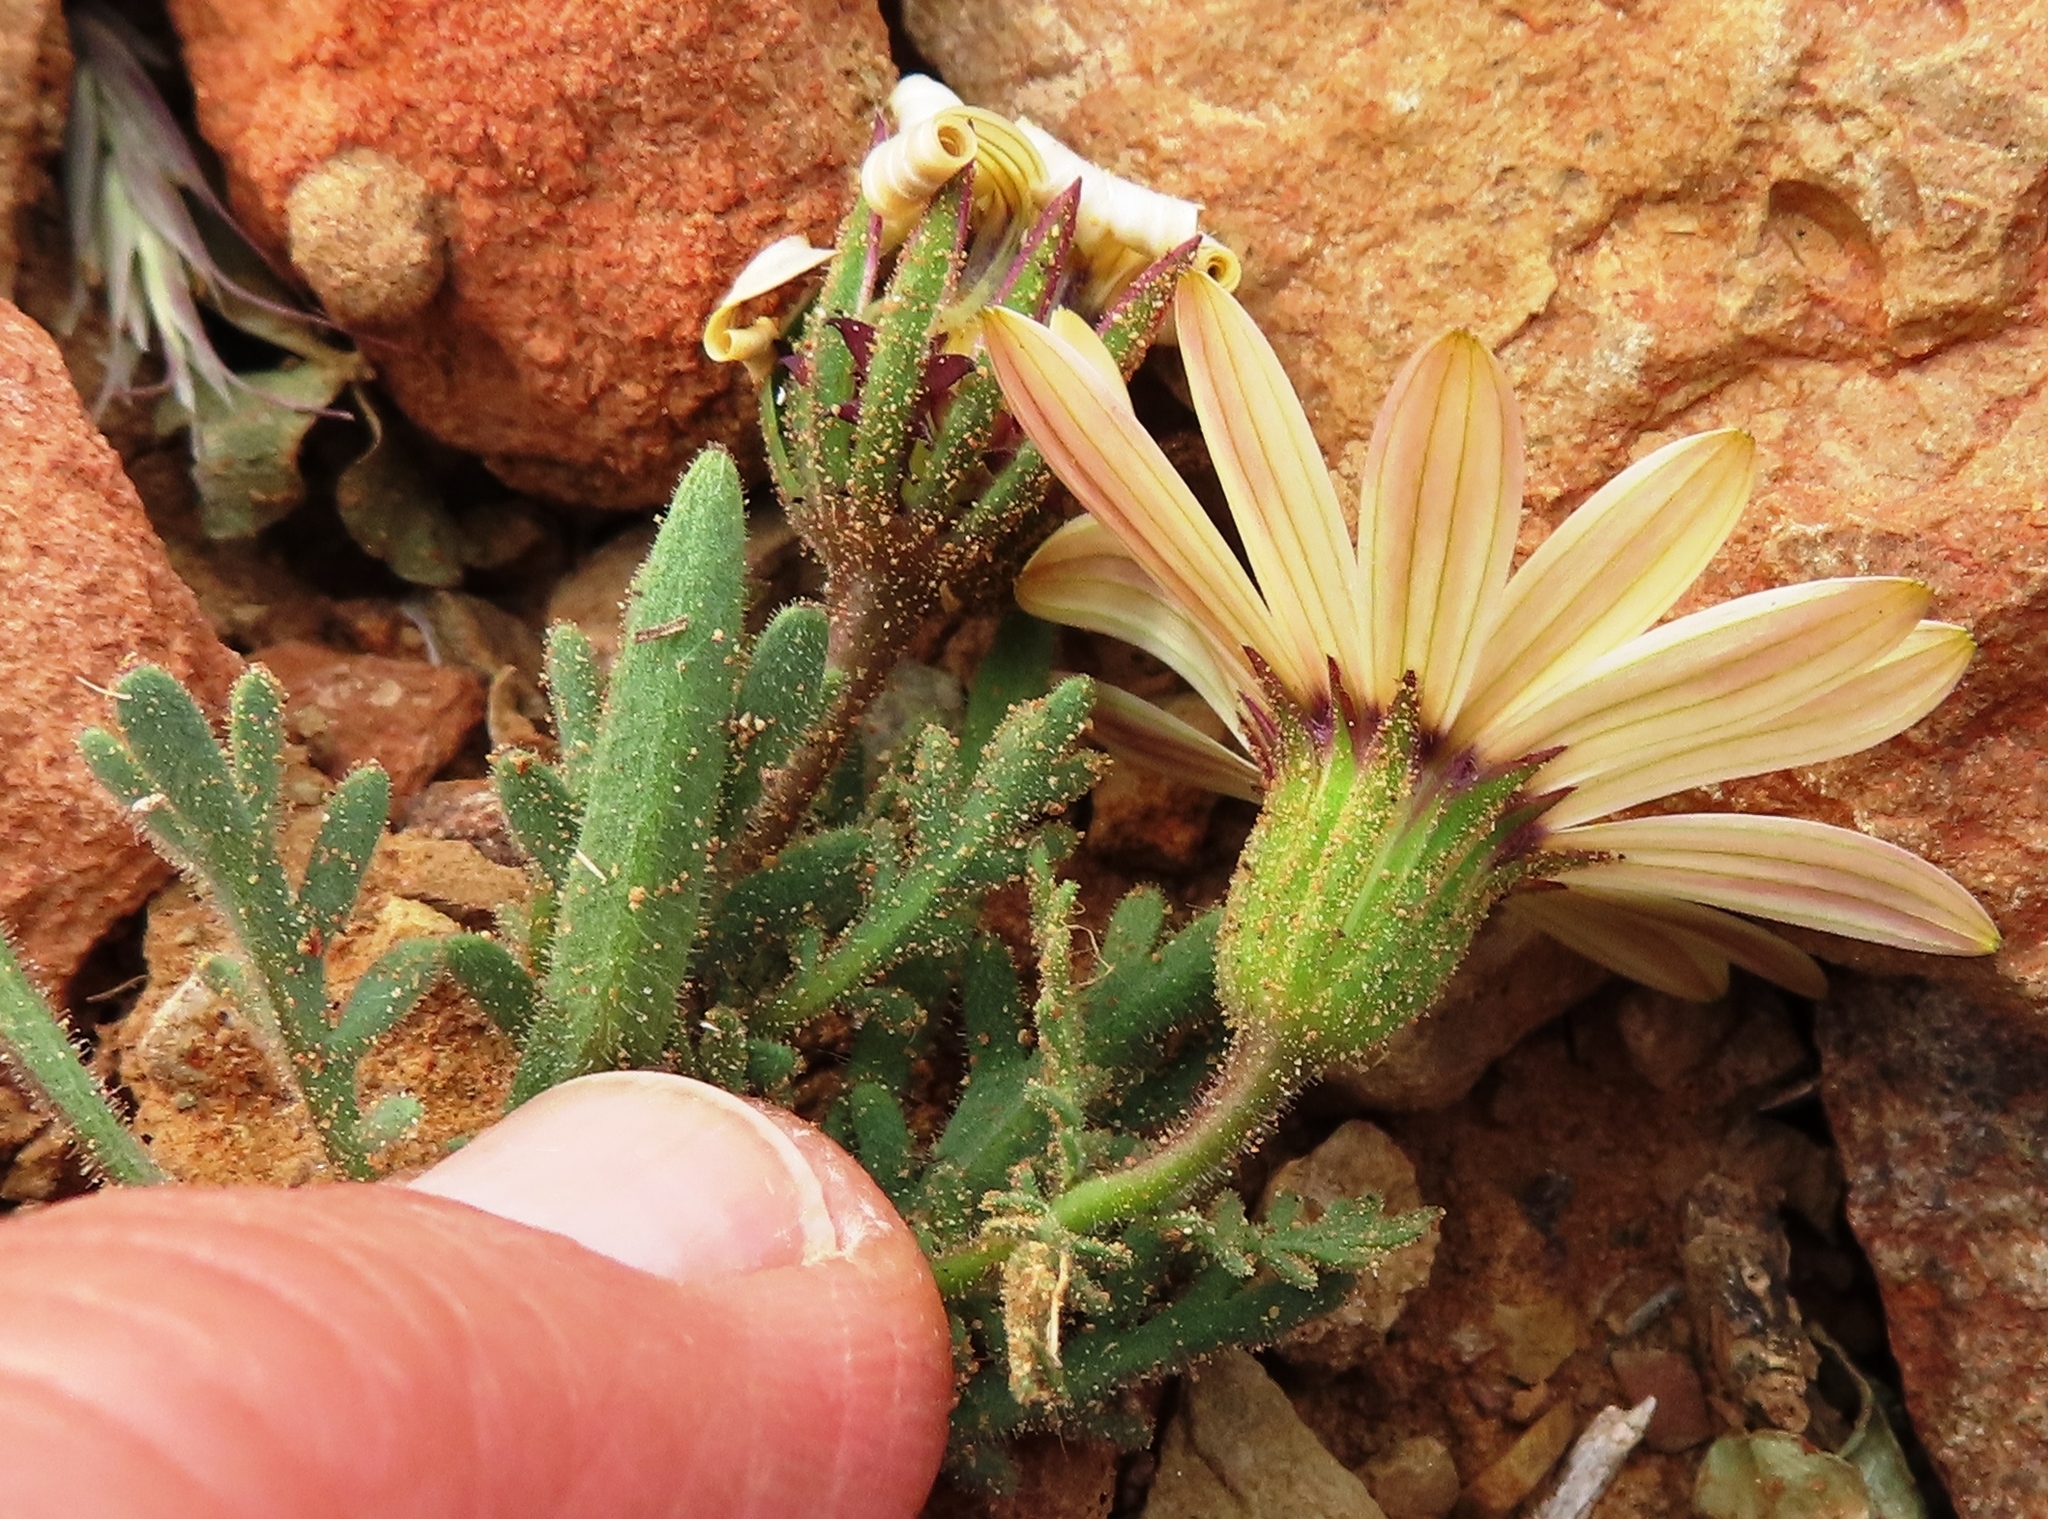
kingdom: Plantae
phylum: Tracheophyta
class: Magnoliopsida
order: Asterales
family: Asteraceae
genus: Dimorphotheca
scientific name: Dimorphotheca pinnata
